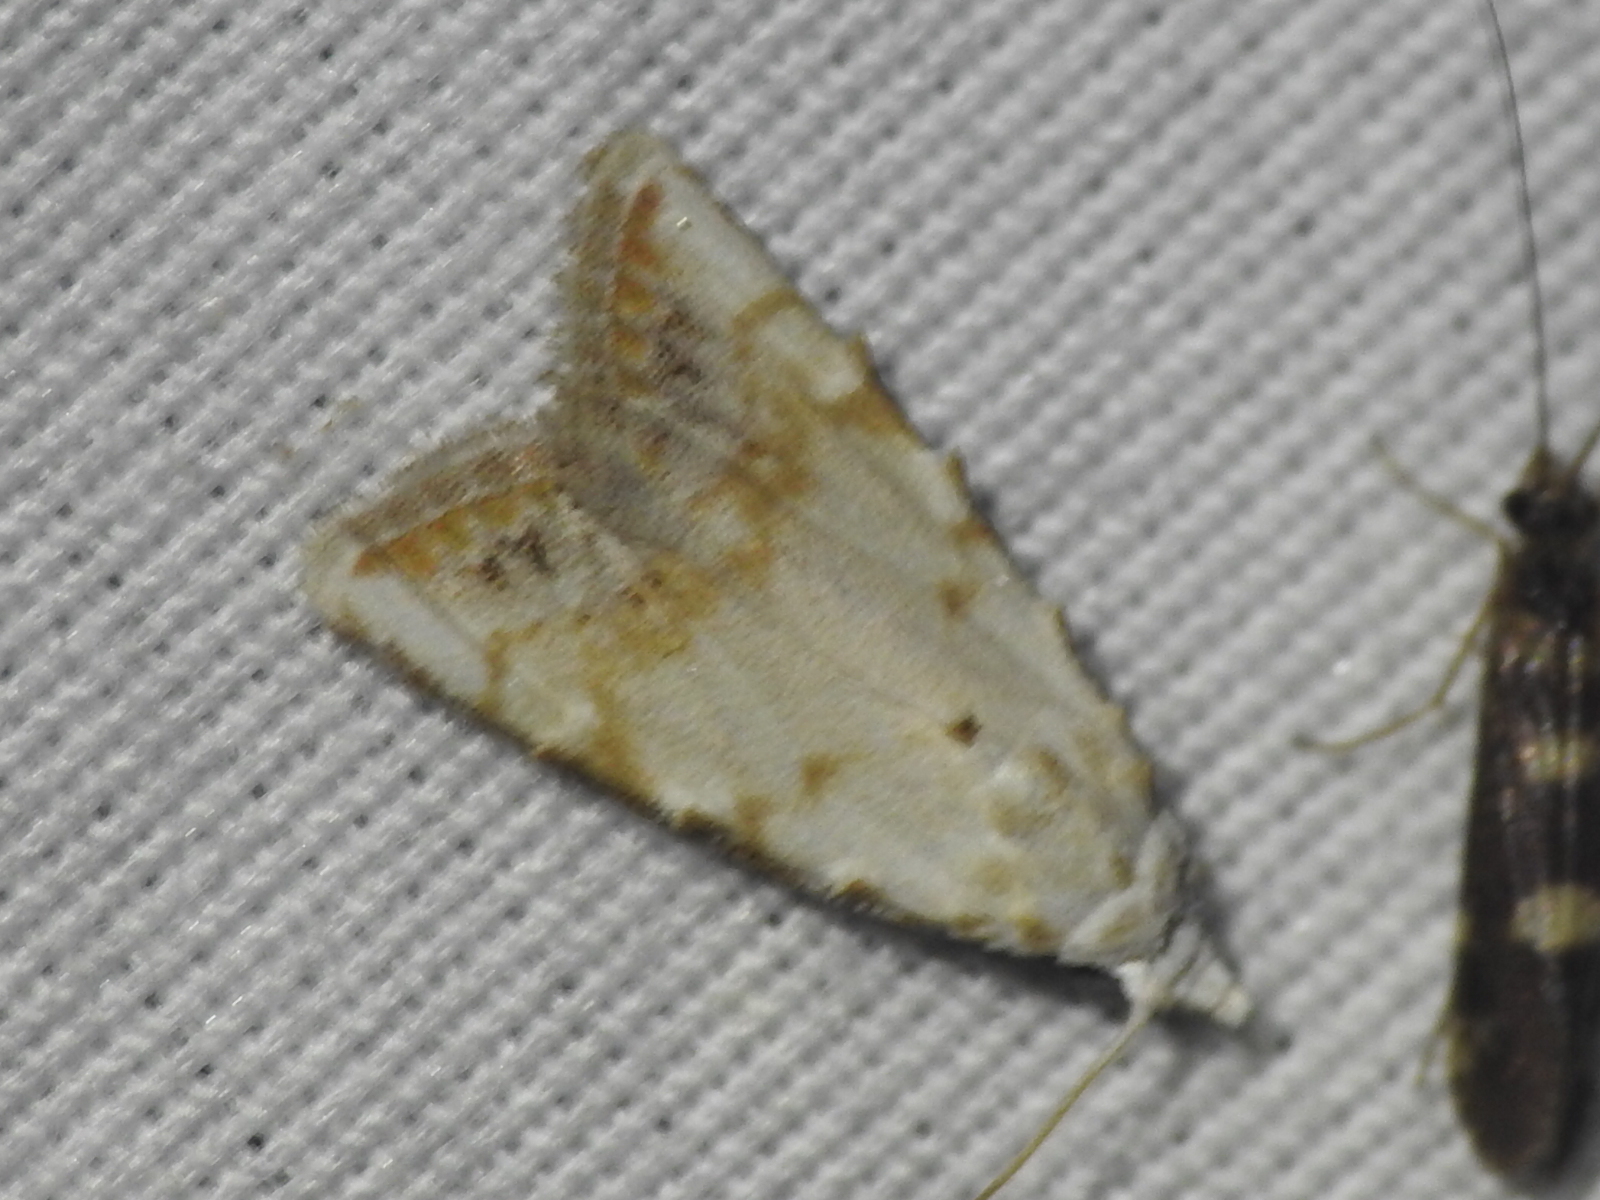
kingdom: Animalia
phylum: Arthropoda
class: Insecta
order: Lepidoptera
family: Nolidae
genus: Nola
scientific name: Nola cereella
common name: Sorghum webworm moth
